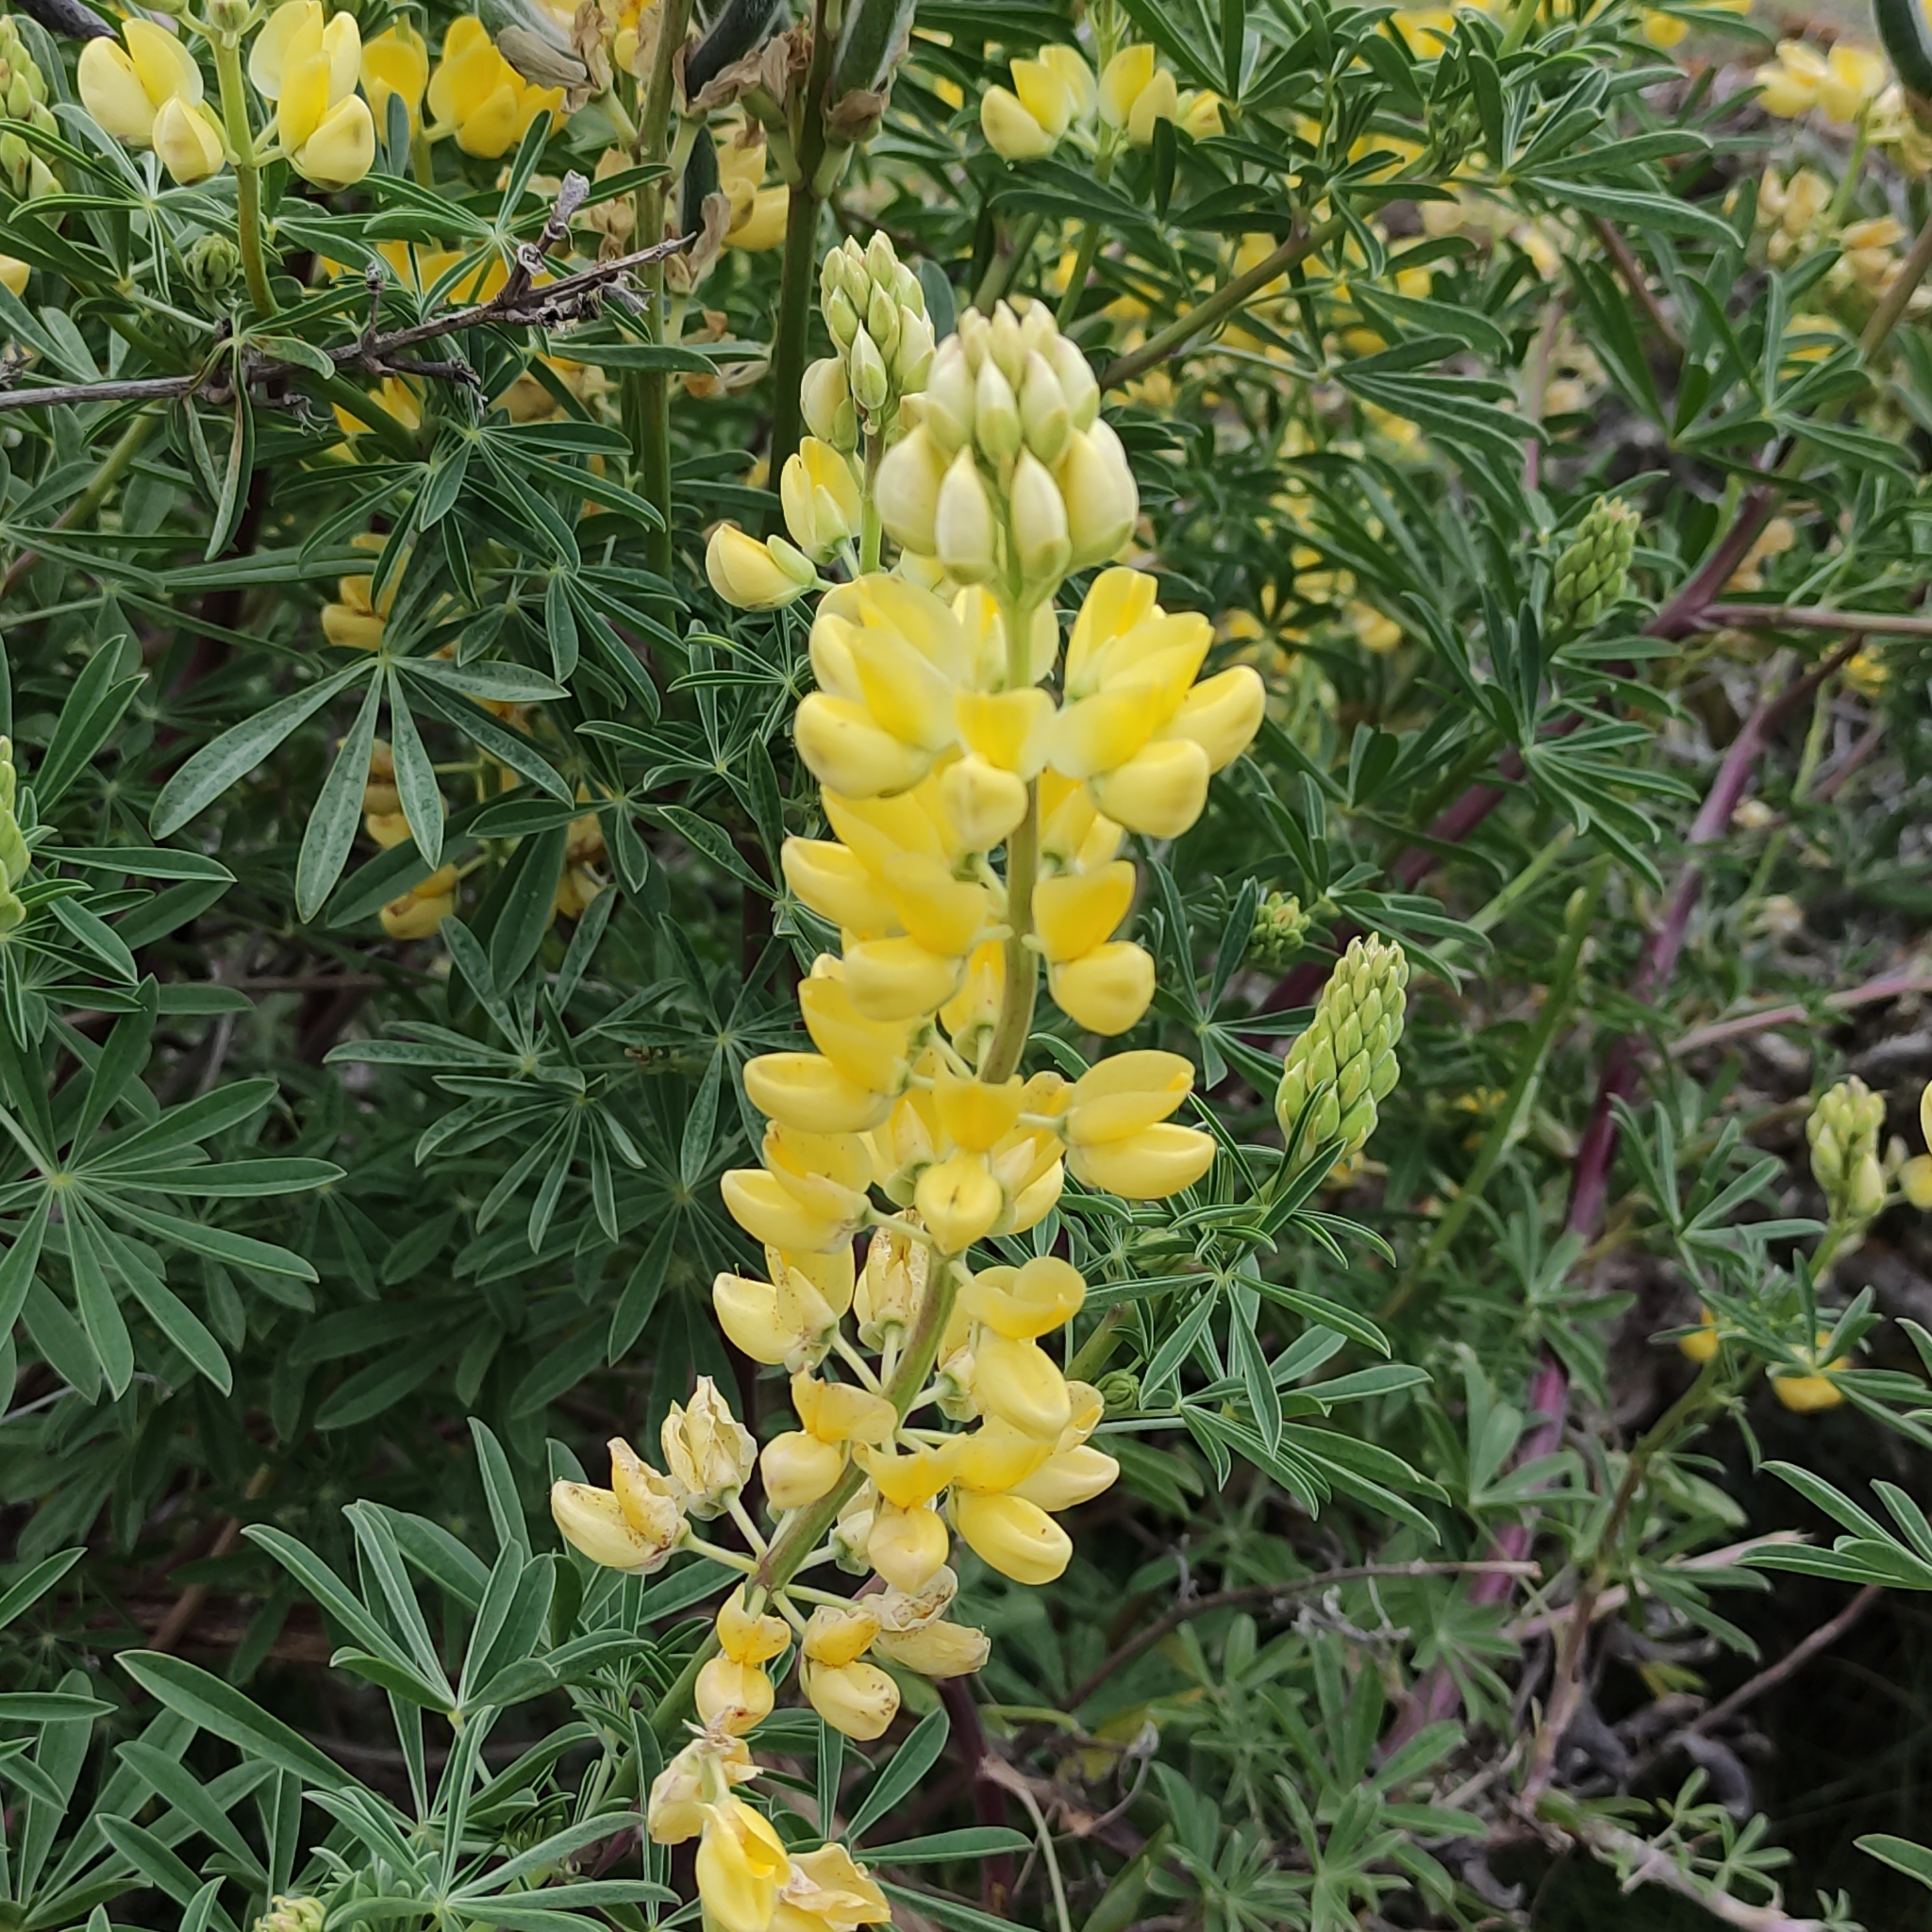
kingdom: Plantae
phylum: Tracheophyta
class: Magnoliopsida
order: Fabales
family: Fabaceae
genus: Lupinus
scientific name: Lupinus arboreus
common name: Yellow bush lupine
